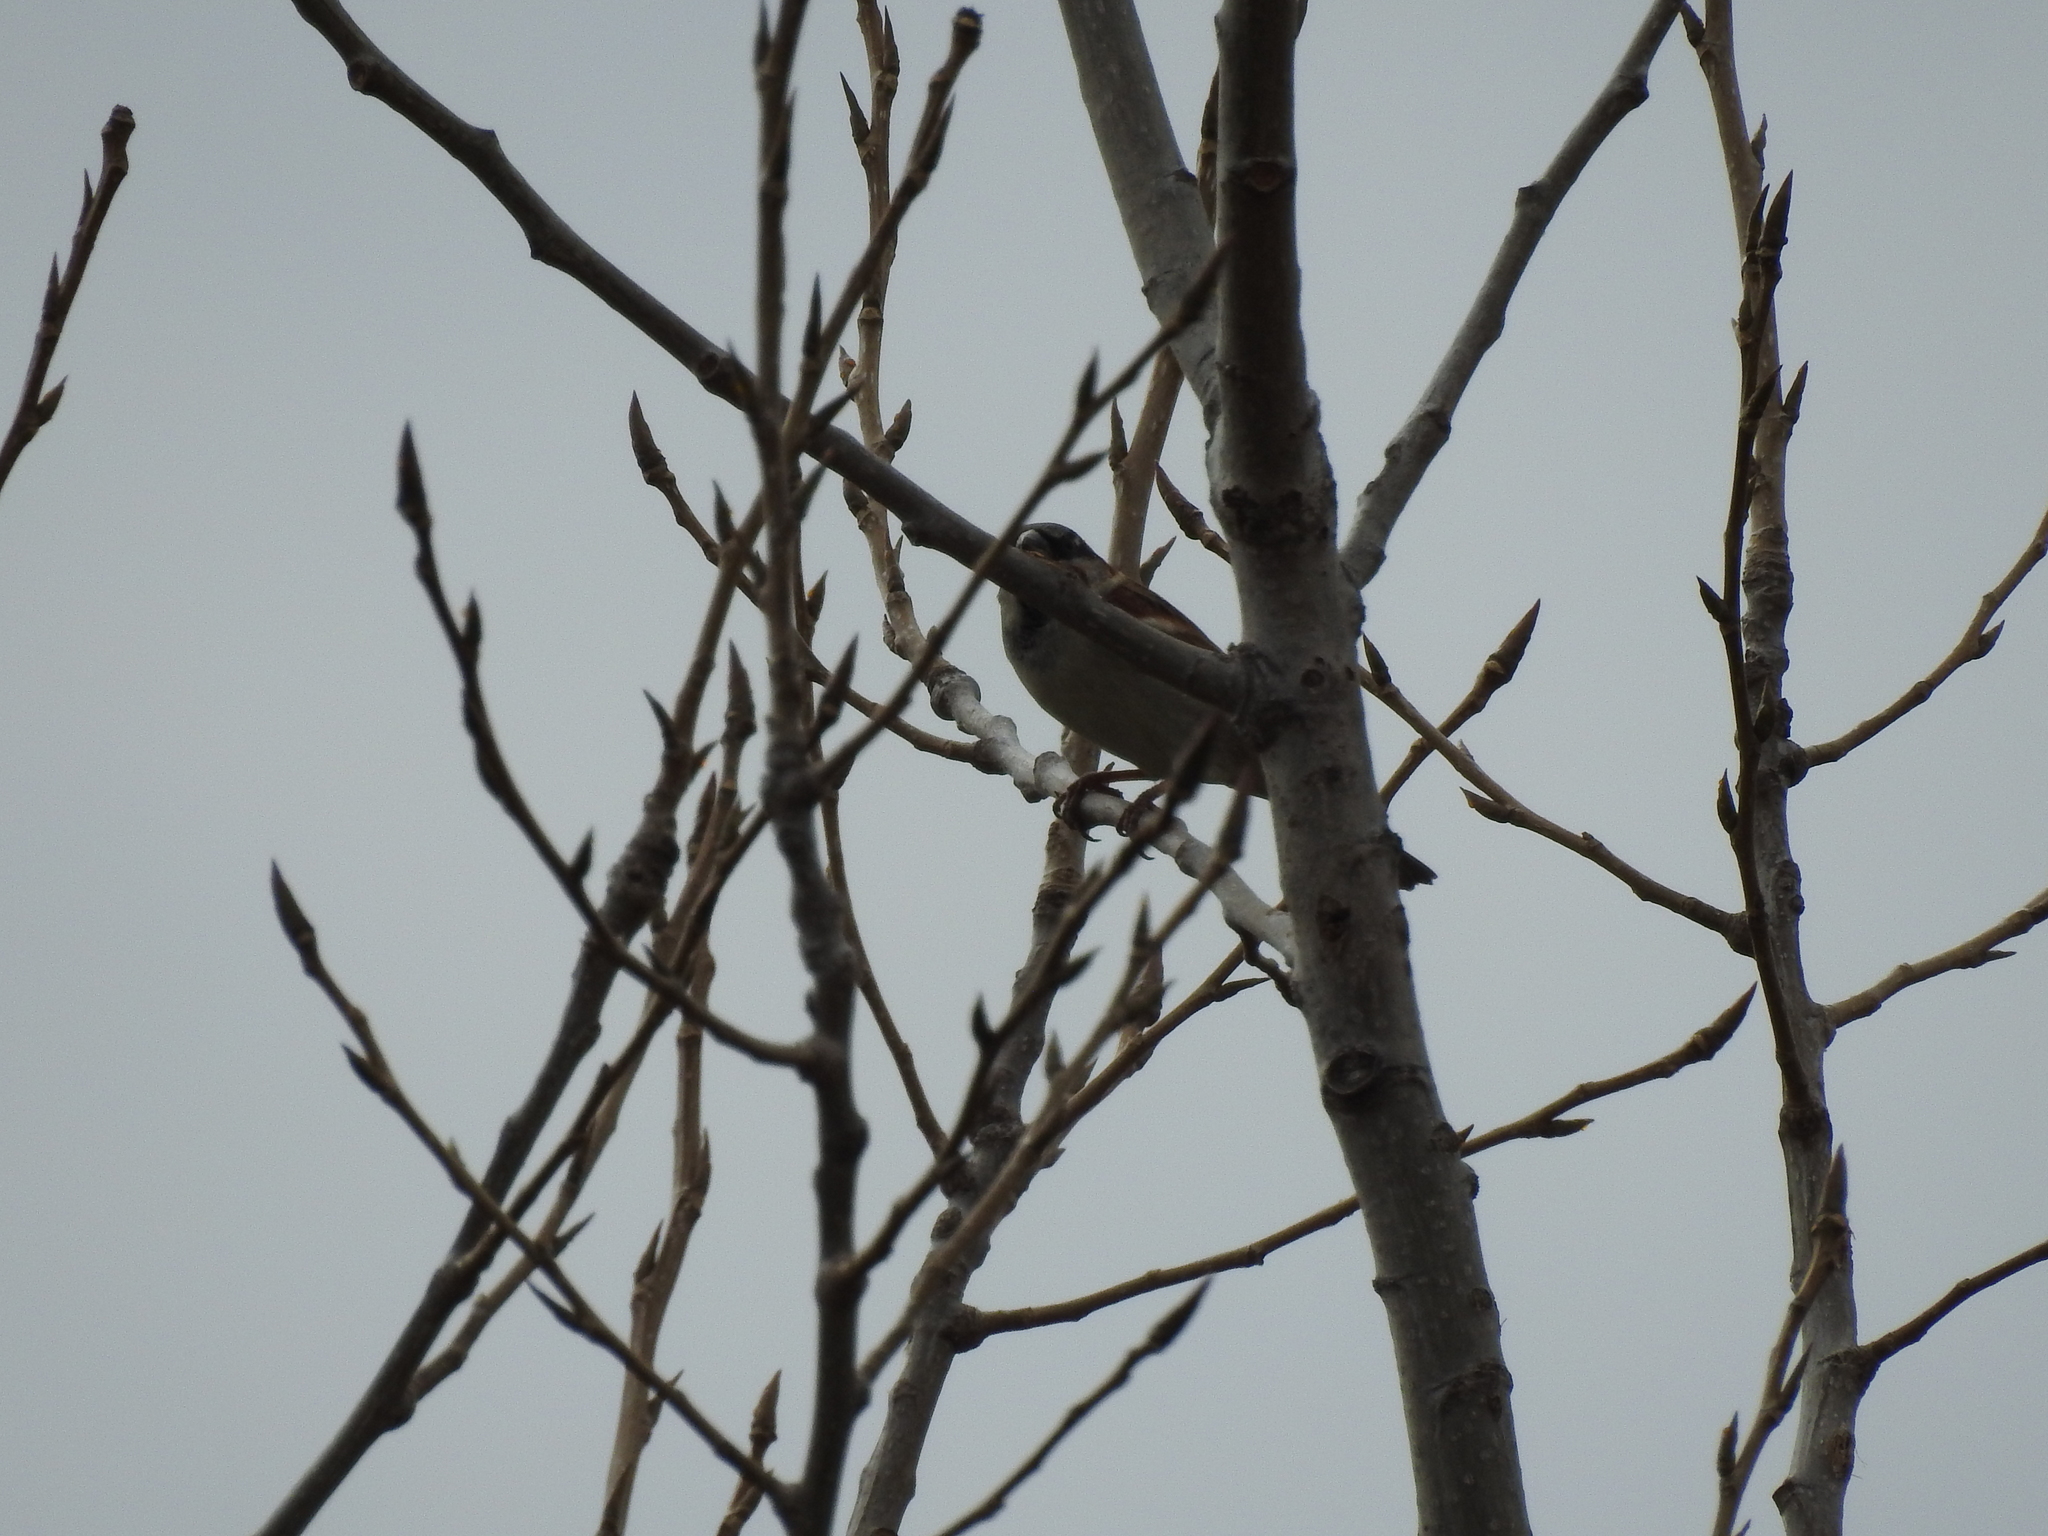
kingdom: Animalia
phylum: Chordata
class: Aves
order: Passeriformes
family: Passeridae
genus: Passer
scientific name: Passer domesticus
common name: House sparrow
